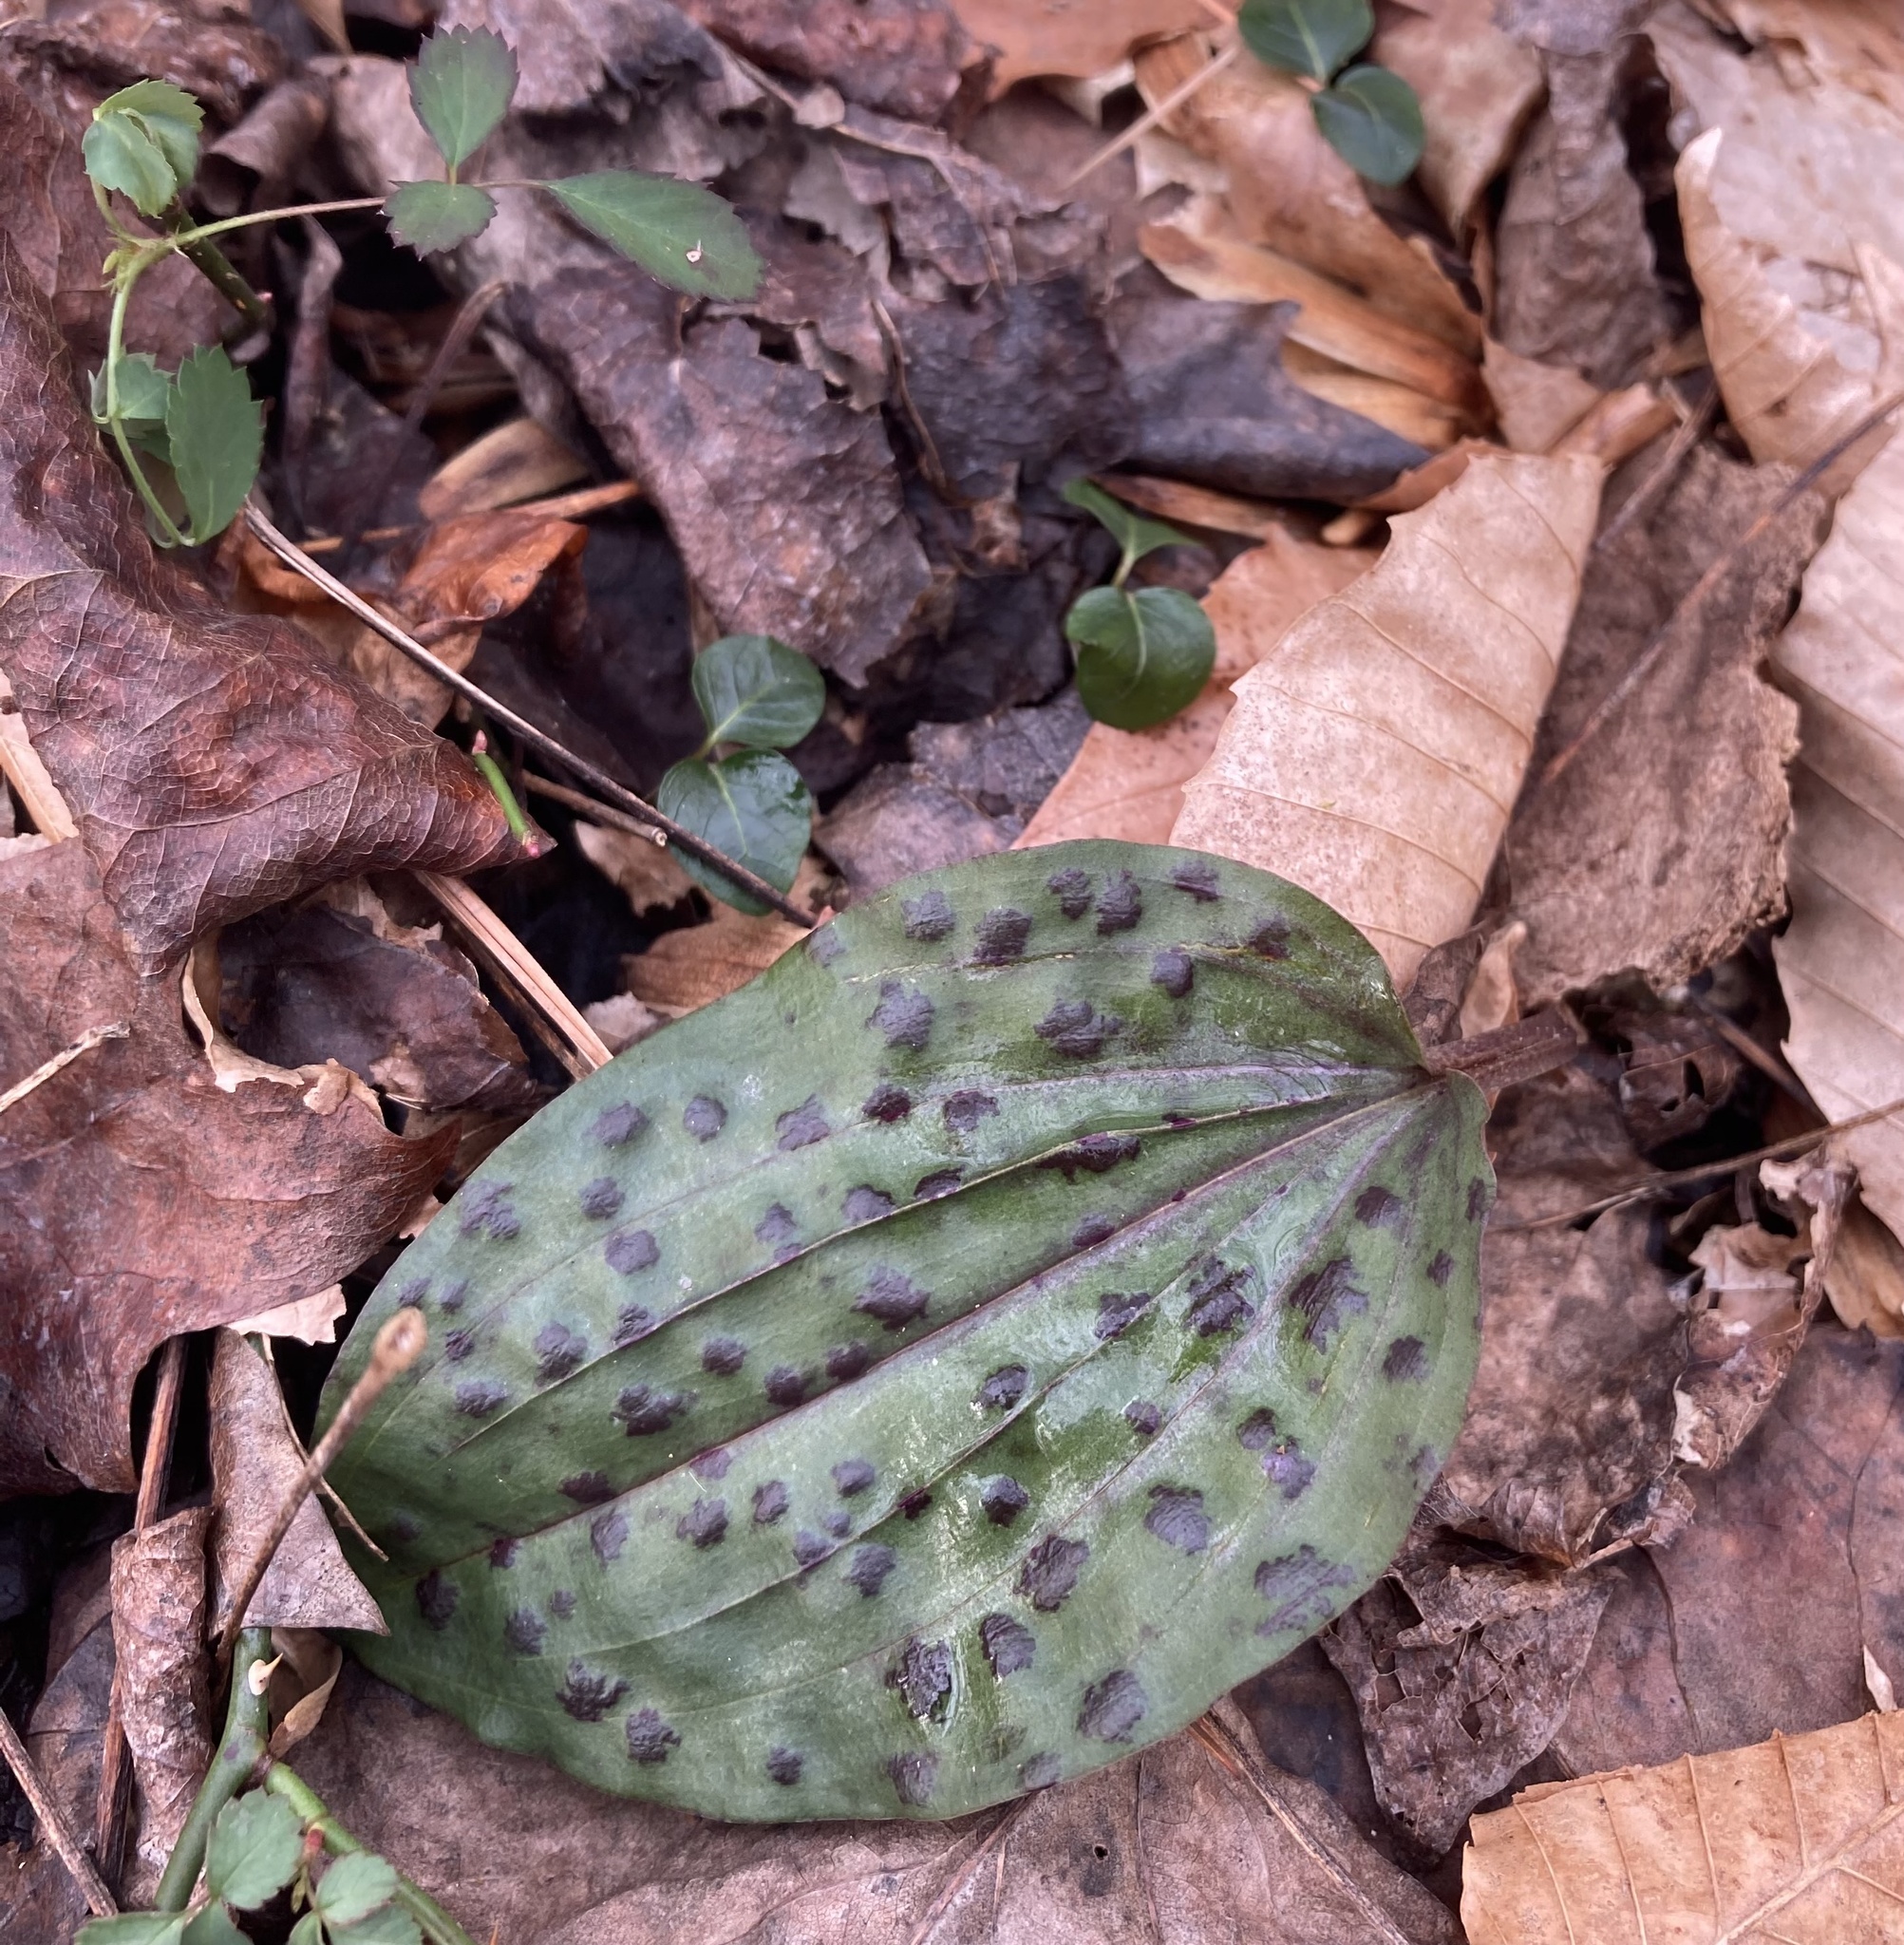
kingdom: Plantae
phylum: Tracheophyta
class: Liliopsida
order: Asparagales
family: Orchidaceae
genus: Tipularia
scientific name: Tipularia discolor
